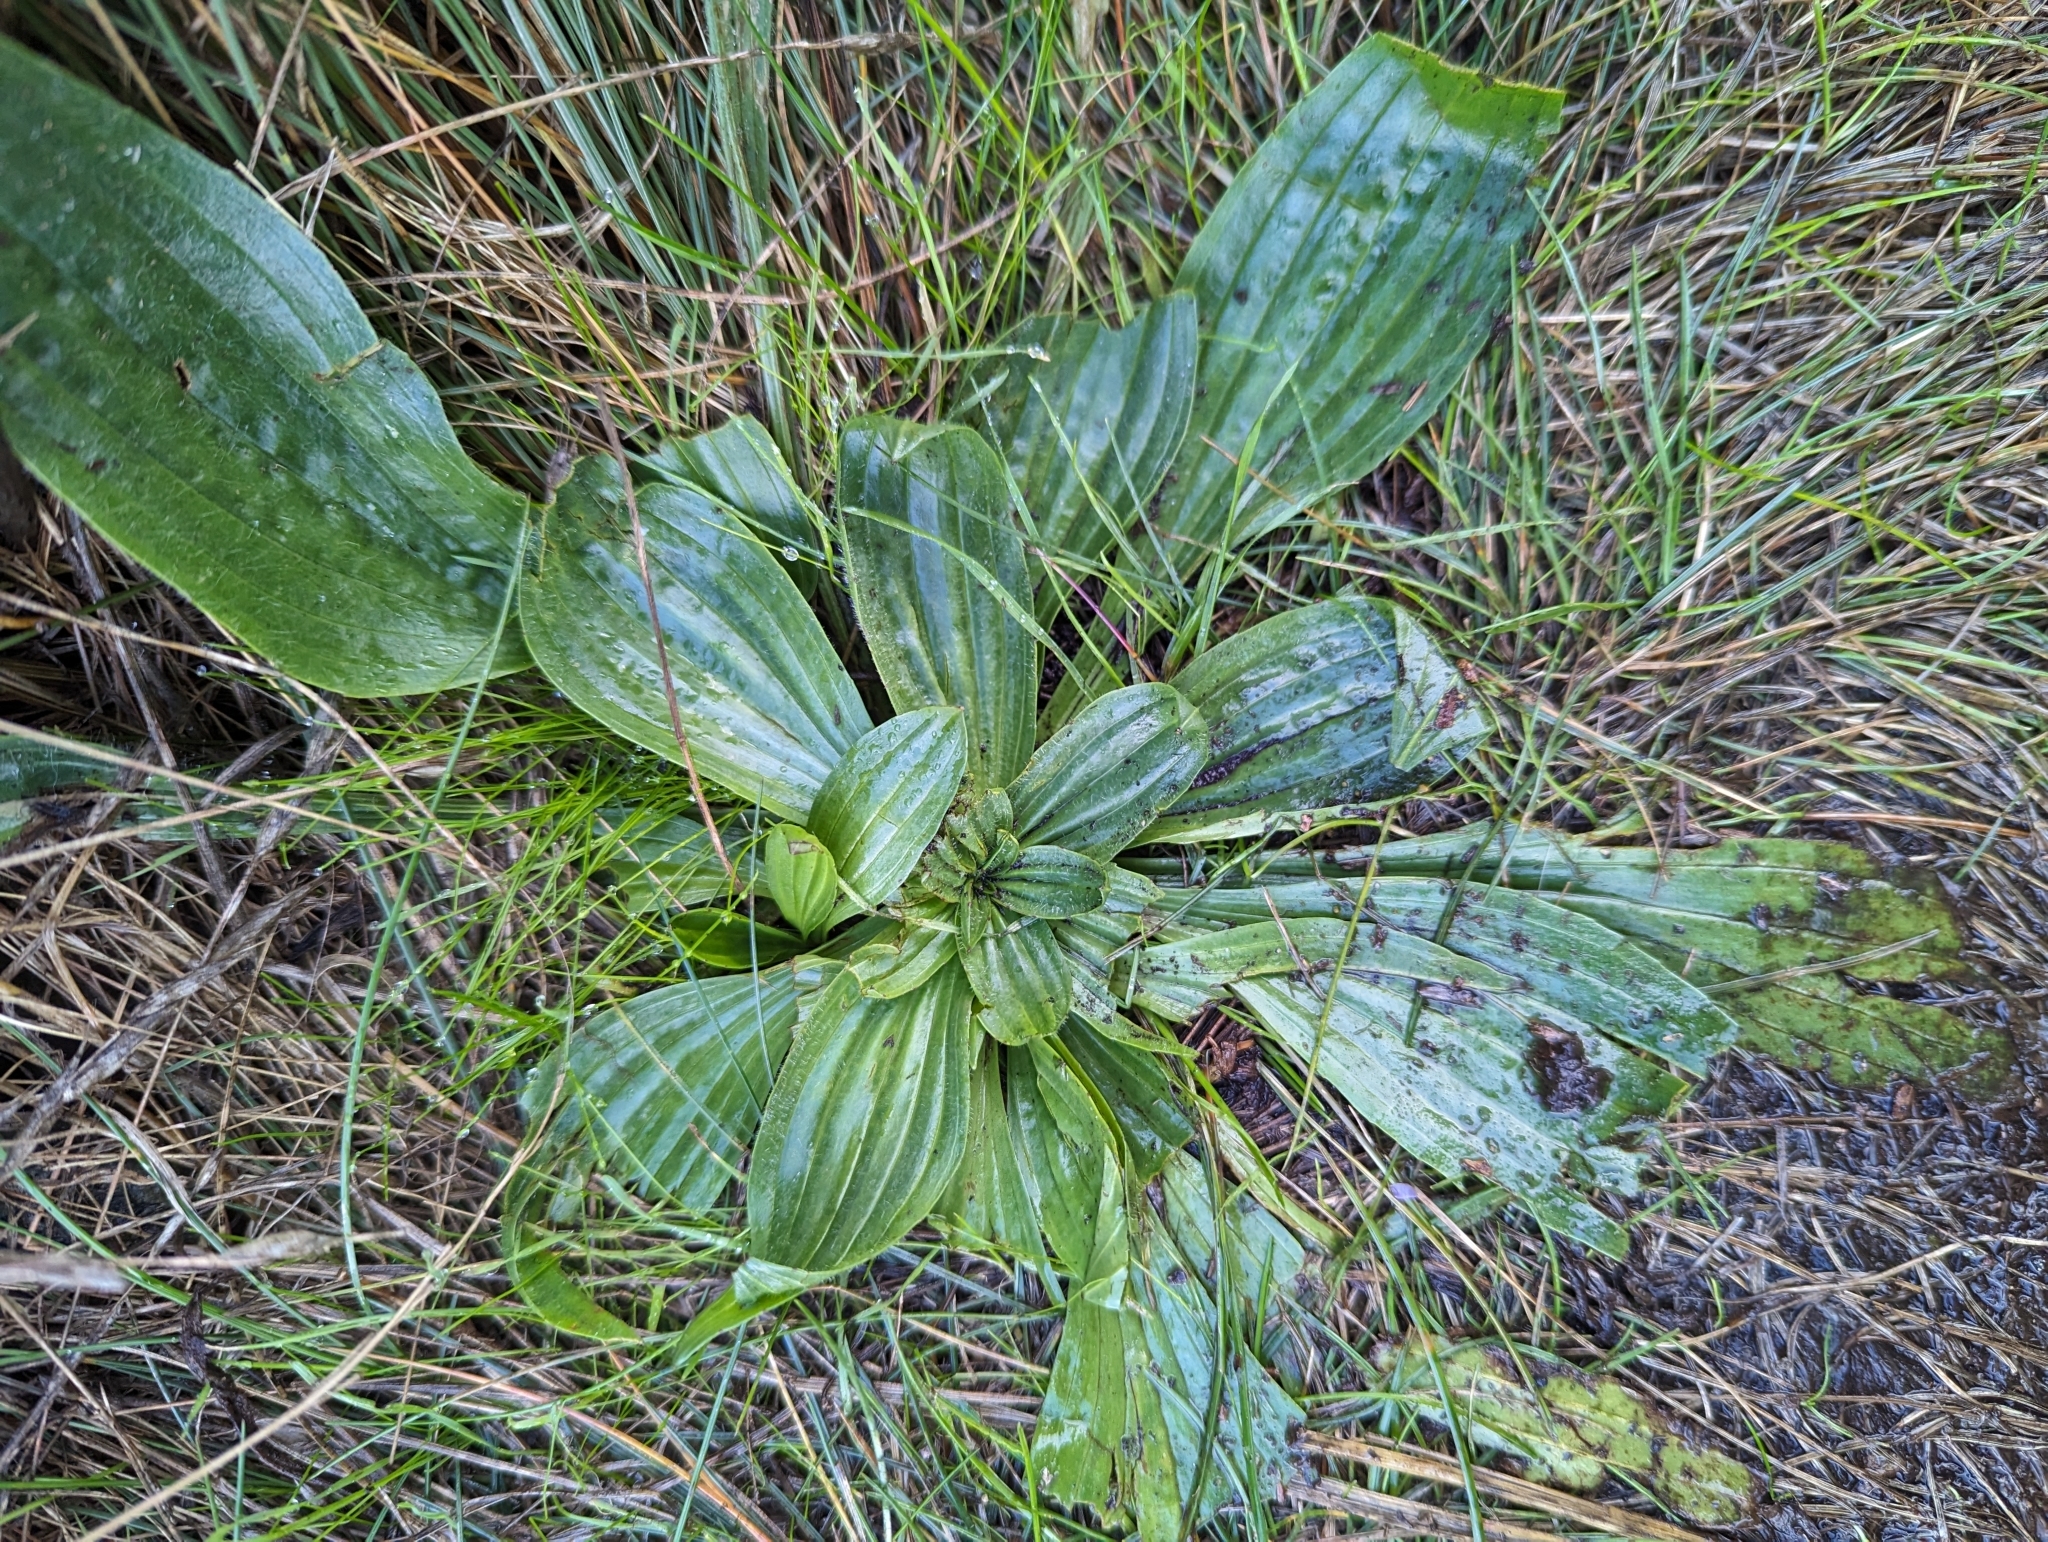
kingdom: Plantae
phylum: Tracheophyta
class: Magnoliopsida
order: Lamiales
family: Plantaginaceae
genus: Plantago
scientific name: Plantago lanceolata
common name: Ribwort plantain
